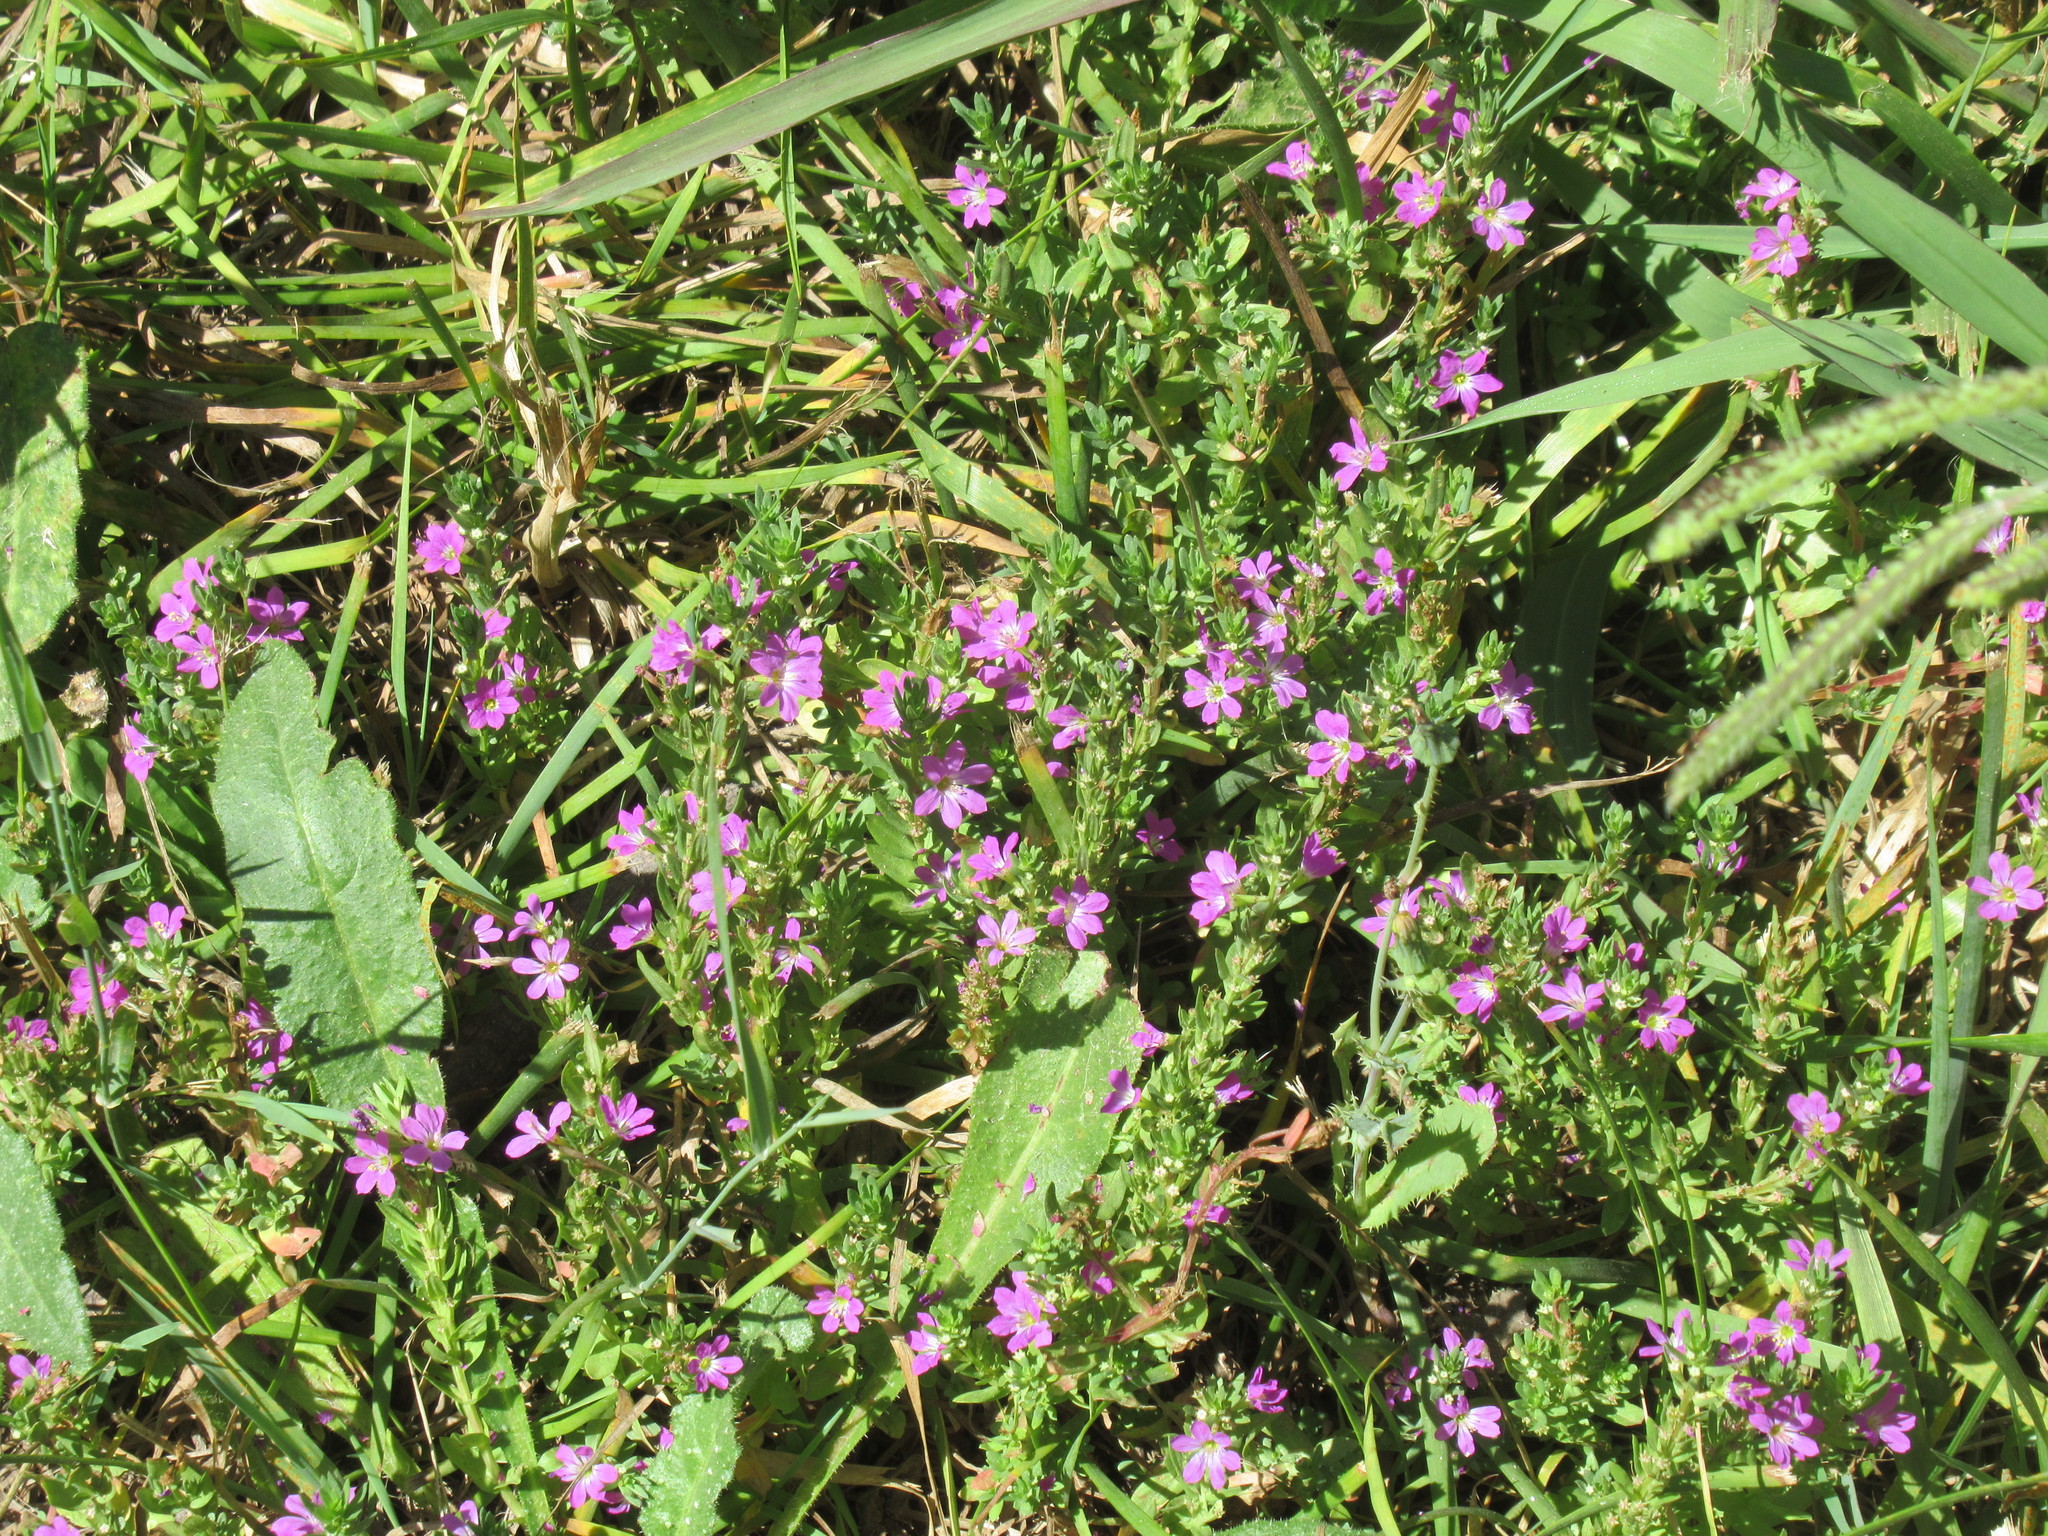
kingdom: Plantae
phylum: Tracheophyta
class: Magnoliopsida
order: Myrtales
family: Lythraceae
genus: Lythrum
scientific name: Lythrum junceum
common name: False grass-poly
